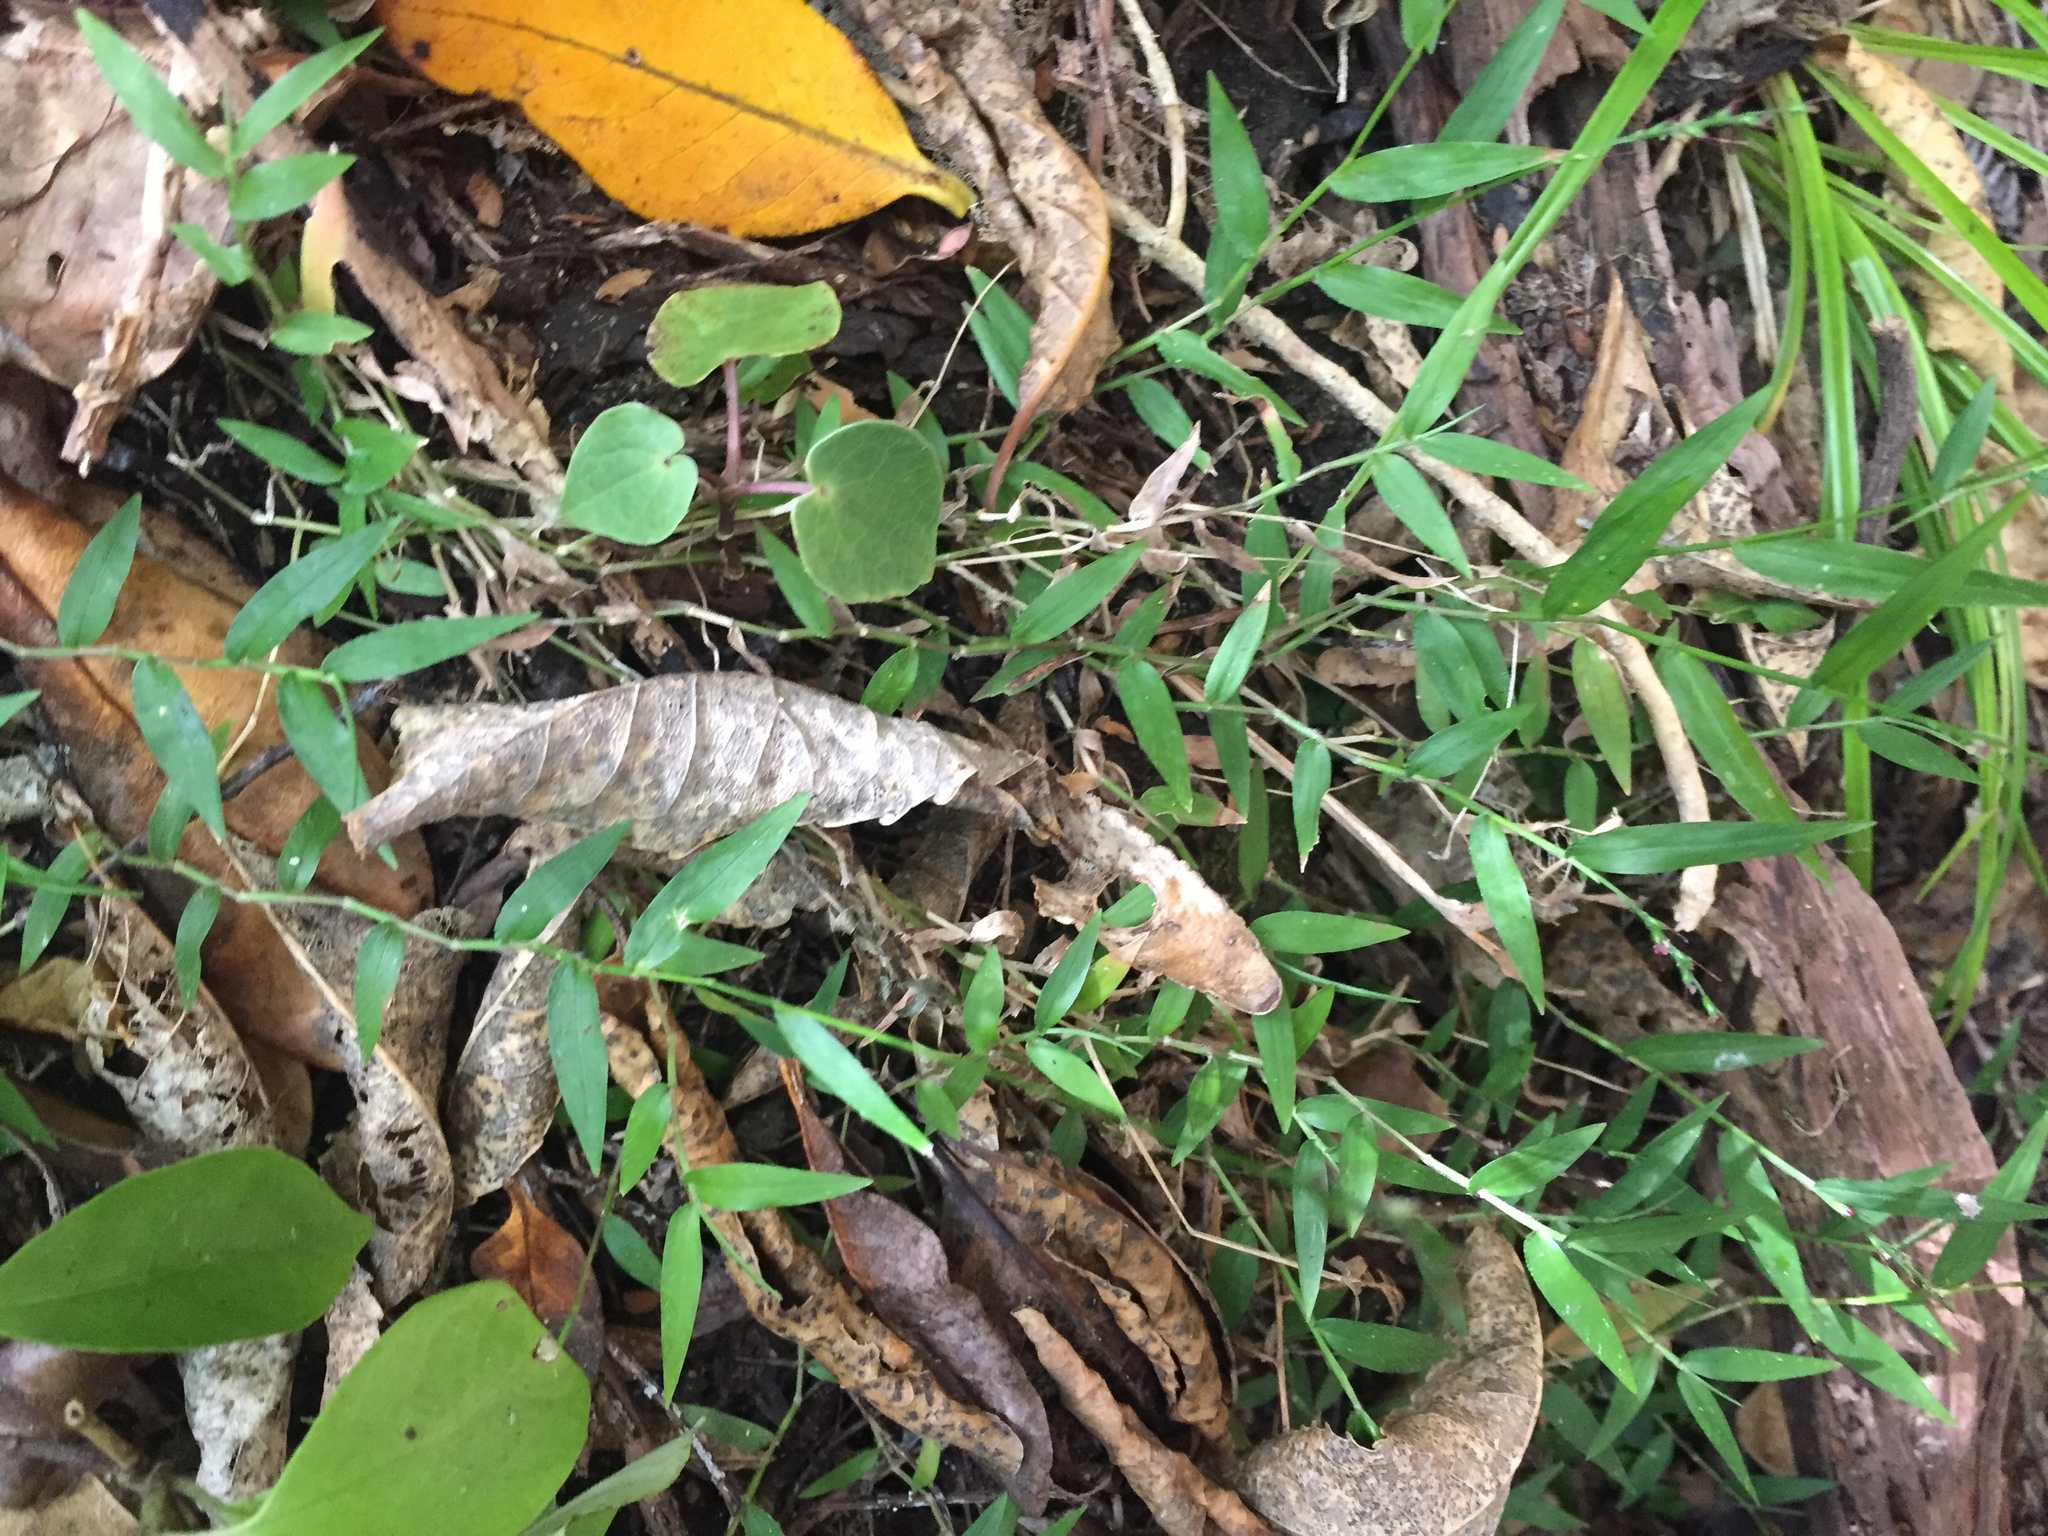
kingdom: Plantae
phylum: Tracheophyta
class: Liliopsida
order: Poales
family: Poaceae
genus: Oplismenus
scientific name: Oplismenus hirtellus
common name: Basketgrass
